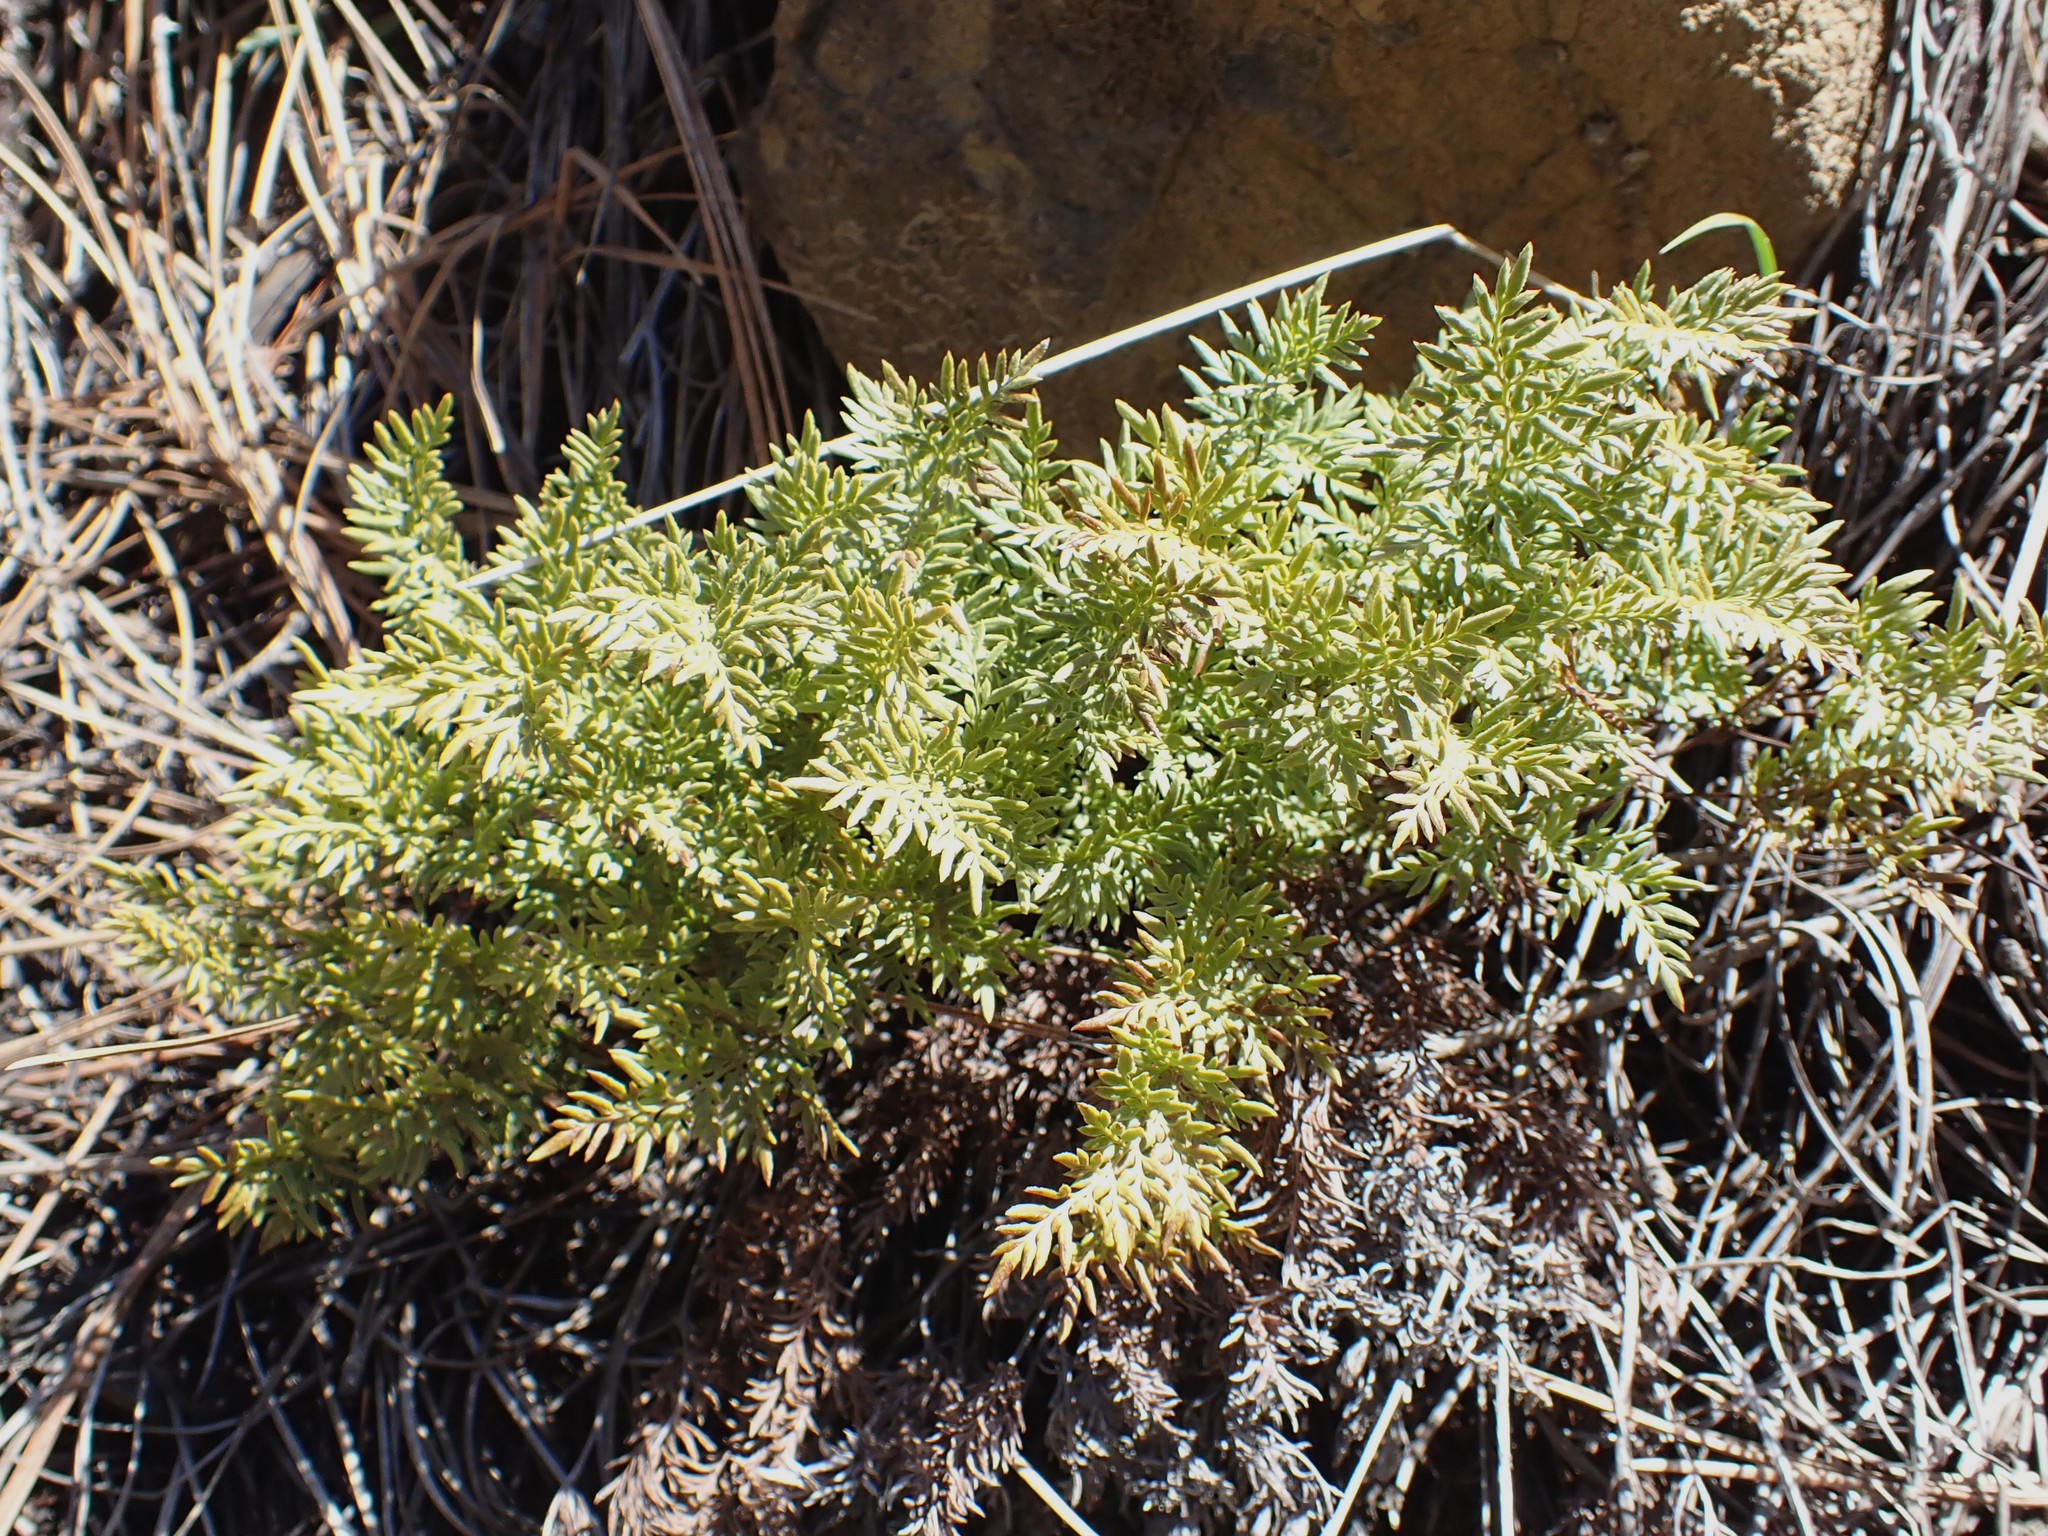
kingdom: Plantae
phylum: Tracheophyta
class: Polypodiopsida
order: Polypodiales
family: Pteridaceae
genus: Aspidotis
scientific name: Aspidotis densa
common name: Indian's dream
